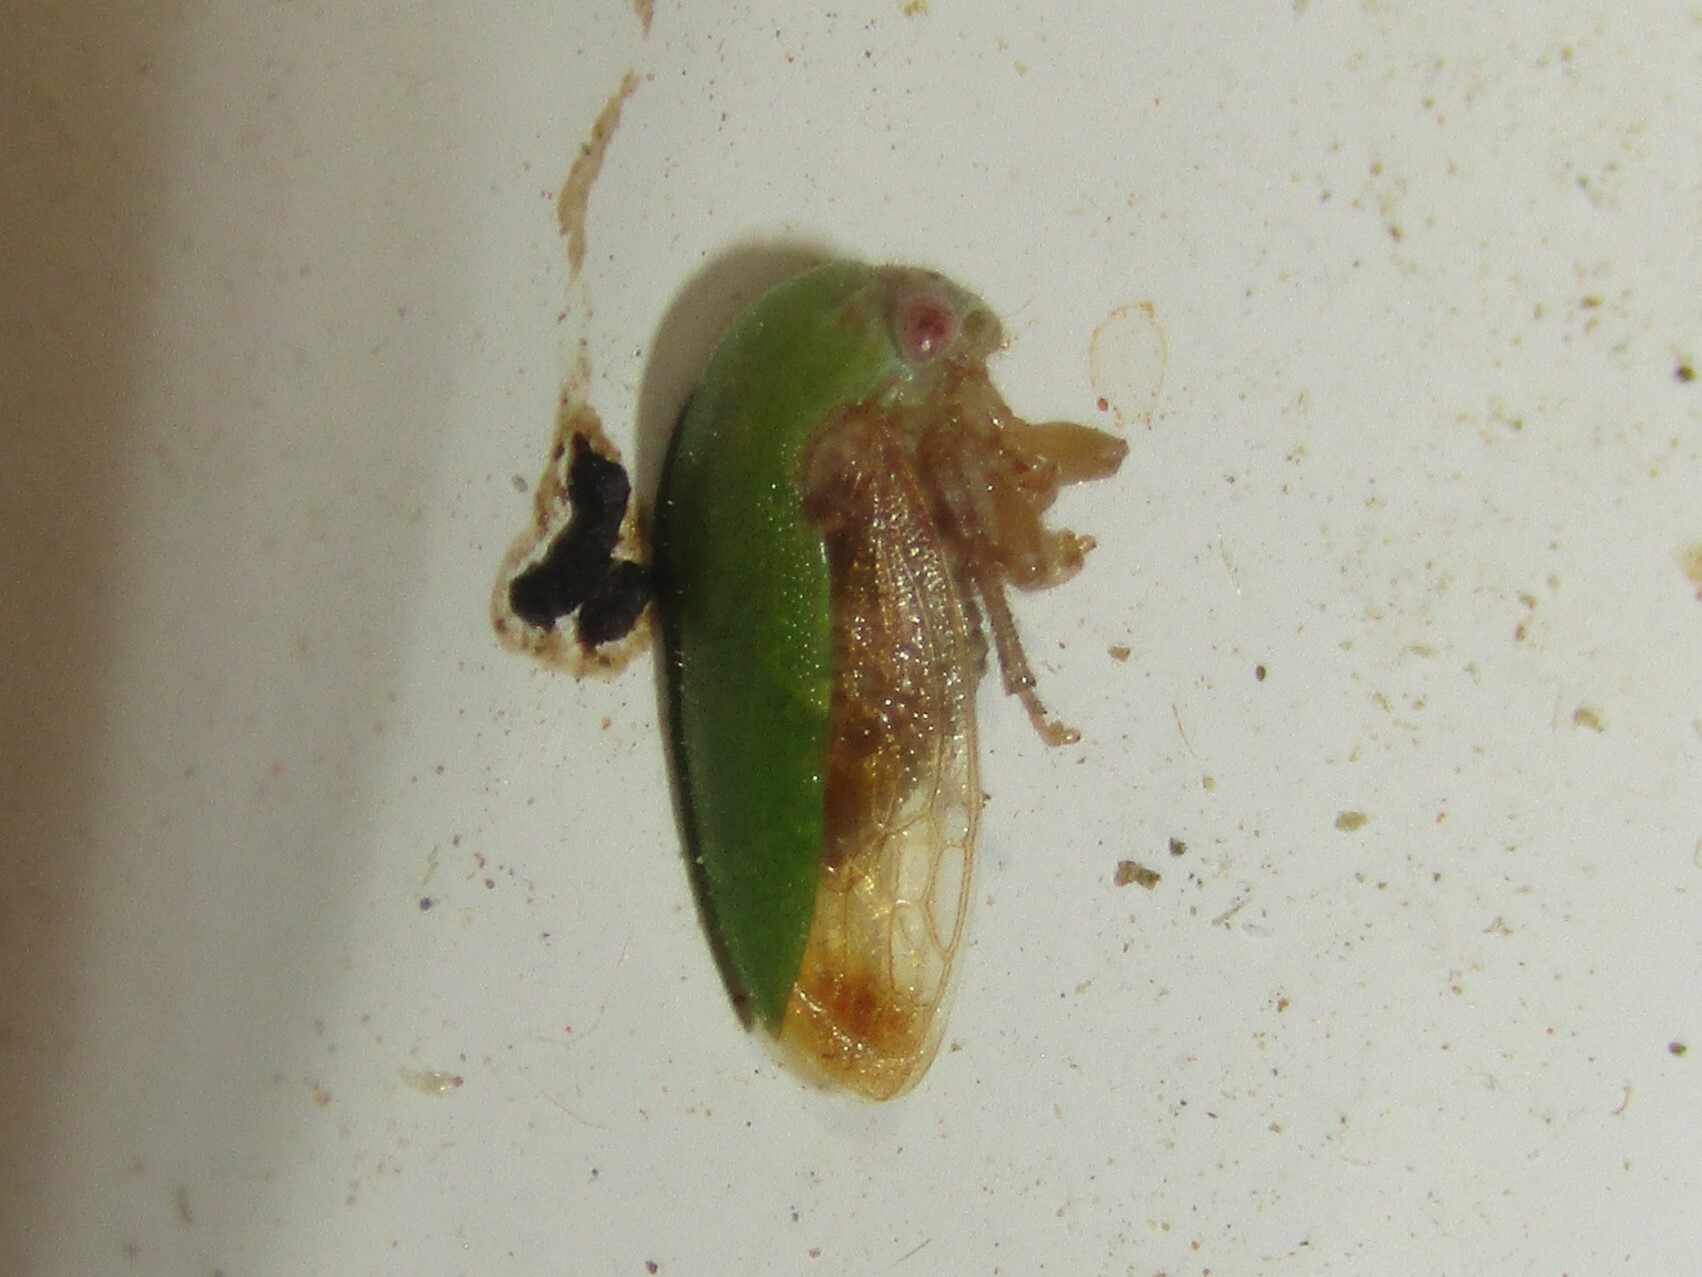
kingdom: Animalia
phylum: Arthropoda
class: Insecta
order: Hemiptera
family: Membracidae
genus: Ophiderma
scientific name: Ophiderma evelyna
